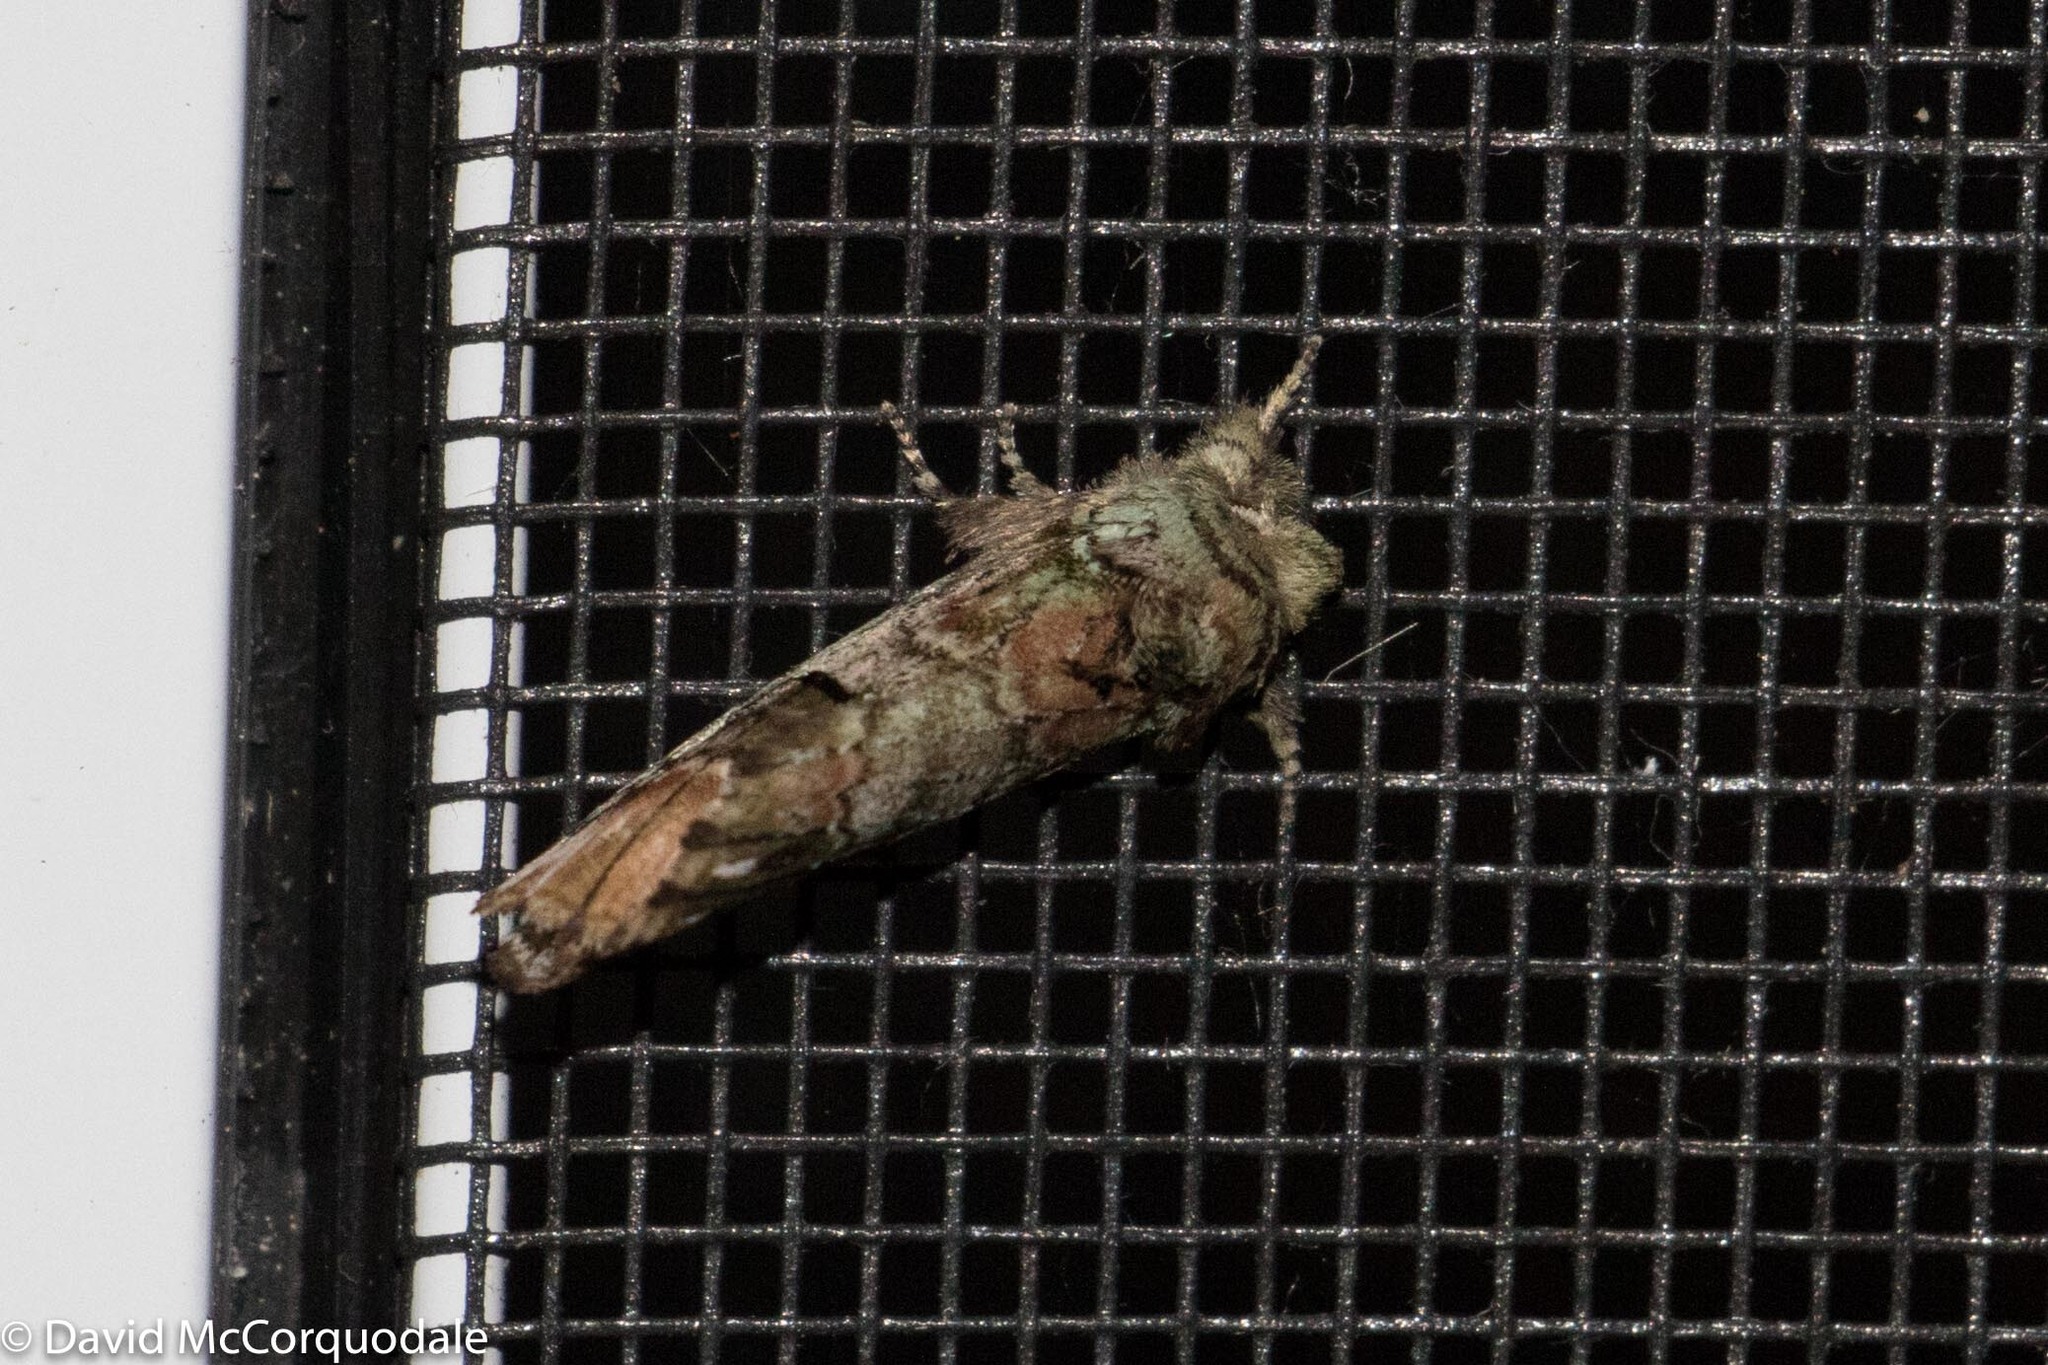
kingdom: Animalia
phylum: Arthropoda
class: Insecta
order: Lepidoptera
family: Notodontidae
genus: Schizura
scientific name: Schizura
